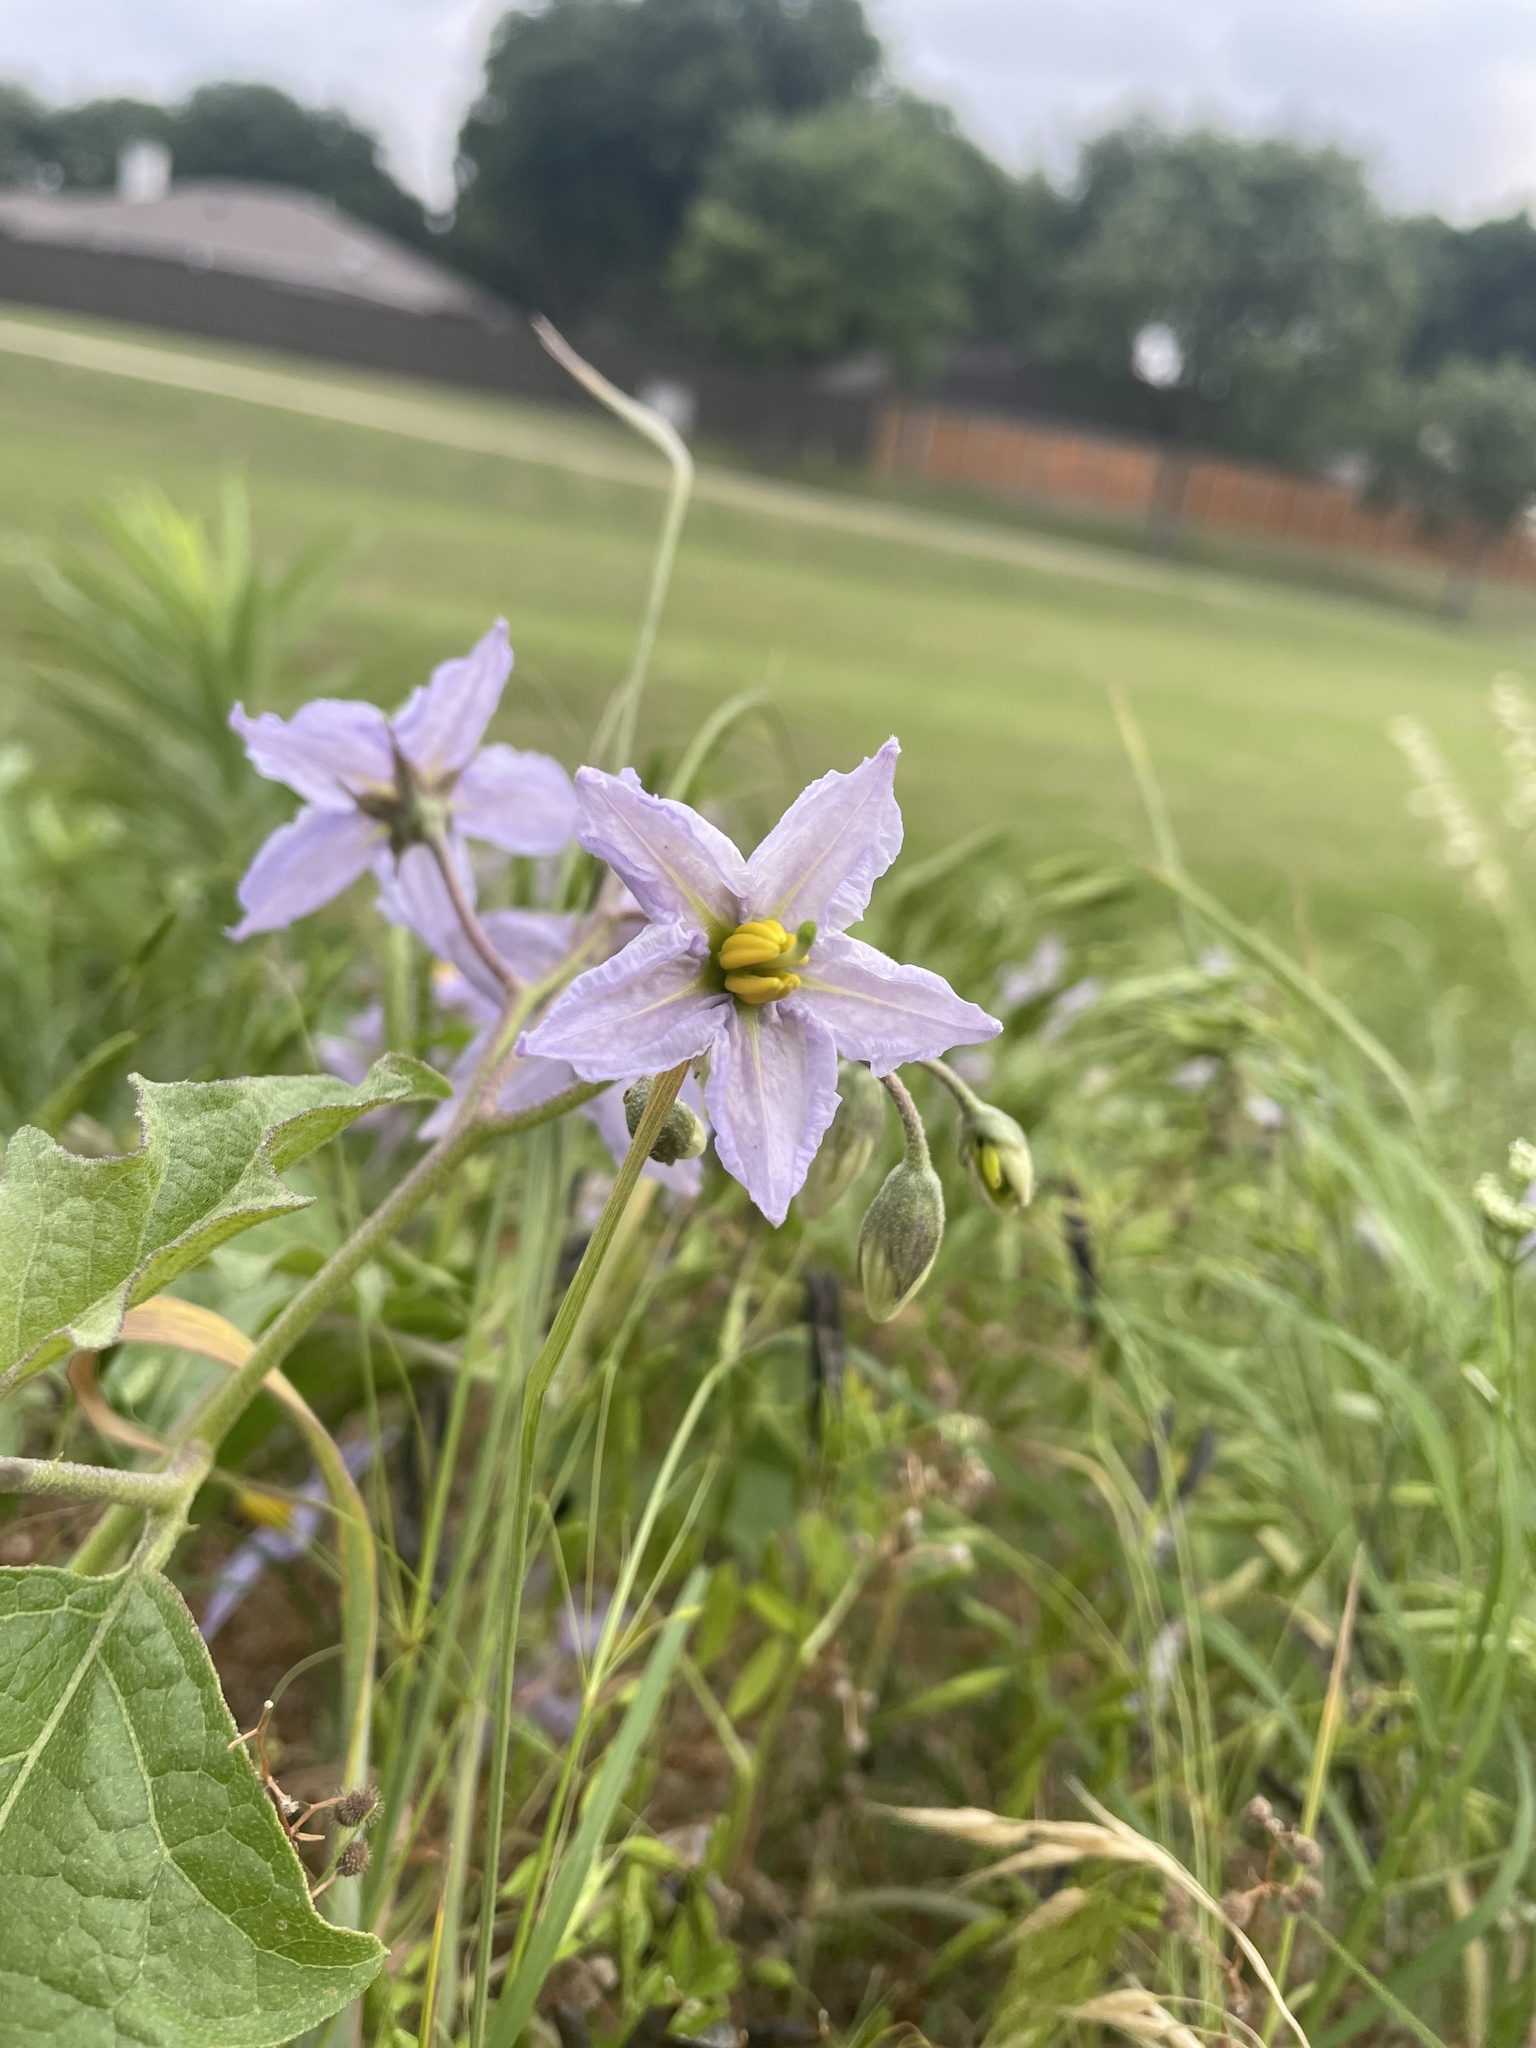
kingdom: Plantae
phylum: Tracheophyta
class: Magnoliopsida
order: Solanales
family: Solanaceae
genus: Solanum
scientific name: Solanum dimidiatum
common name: Carolina horse-nettle
